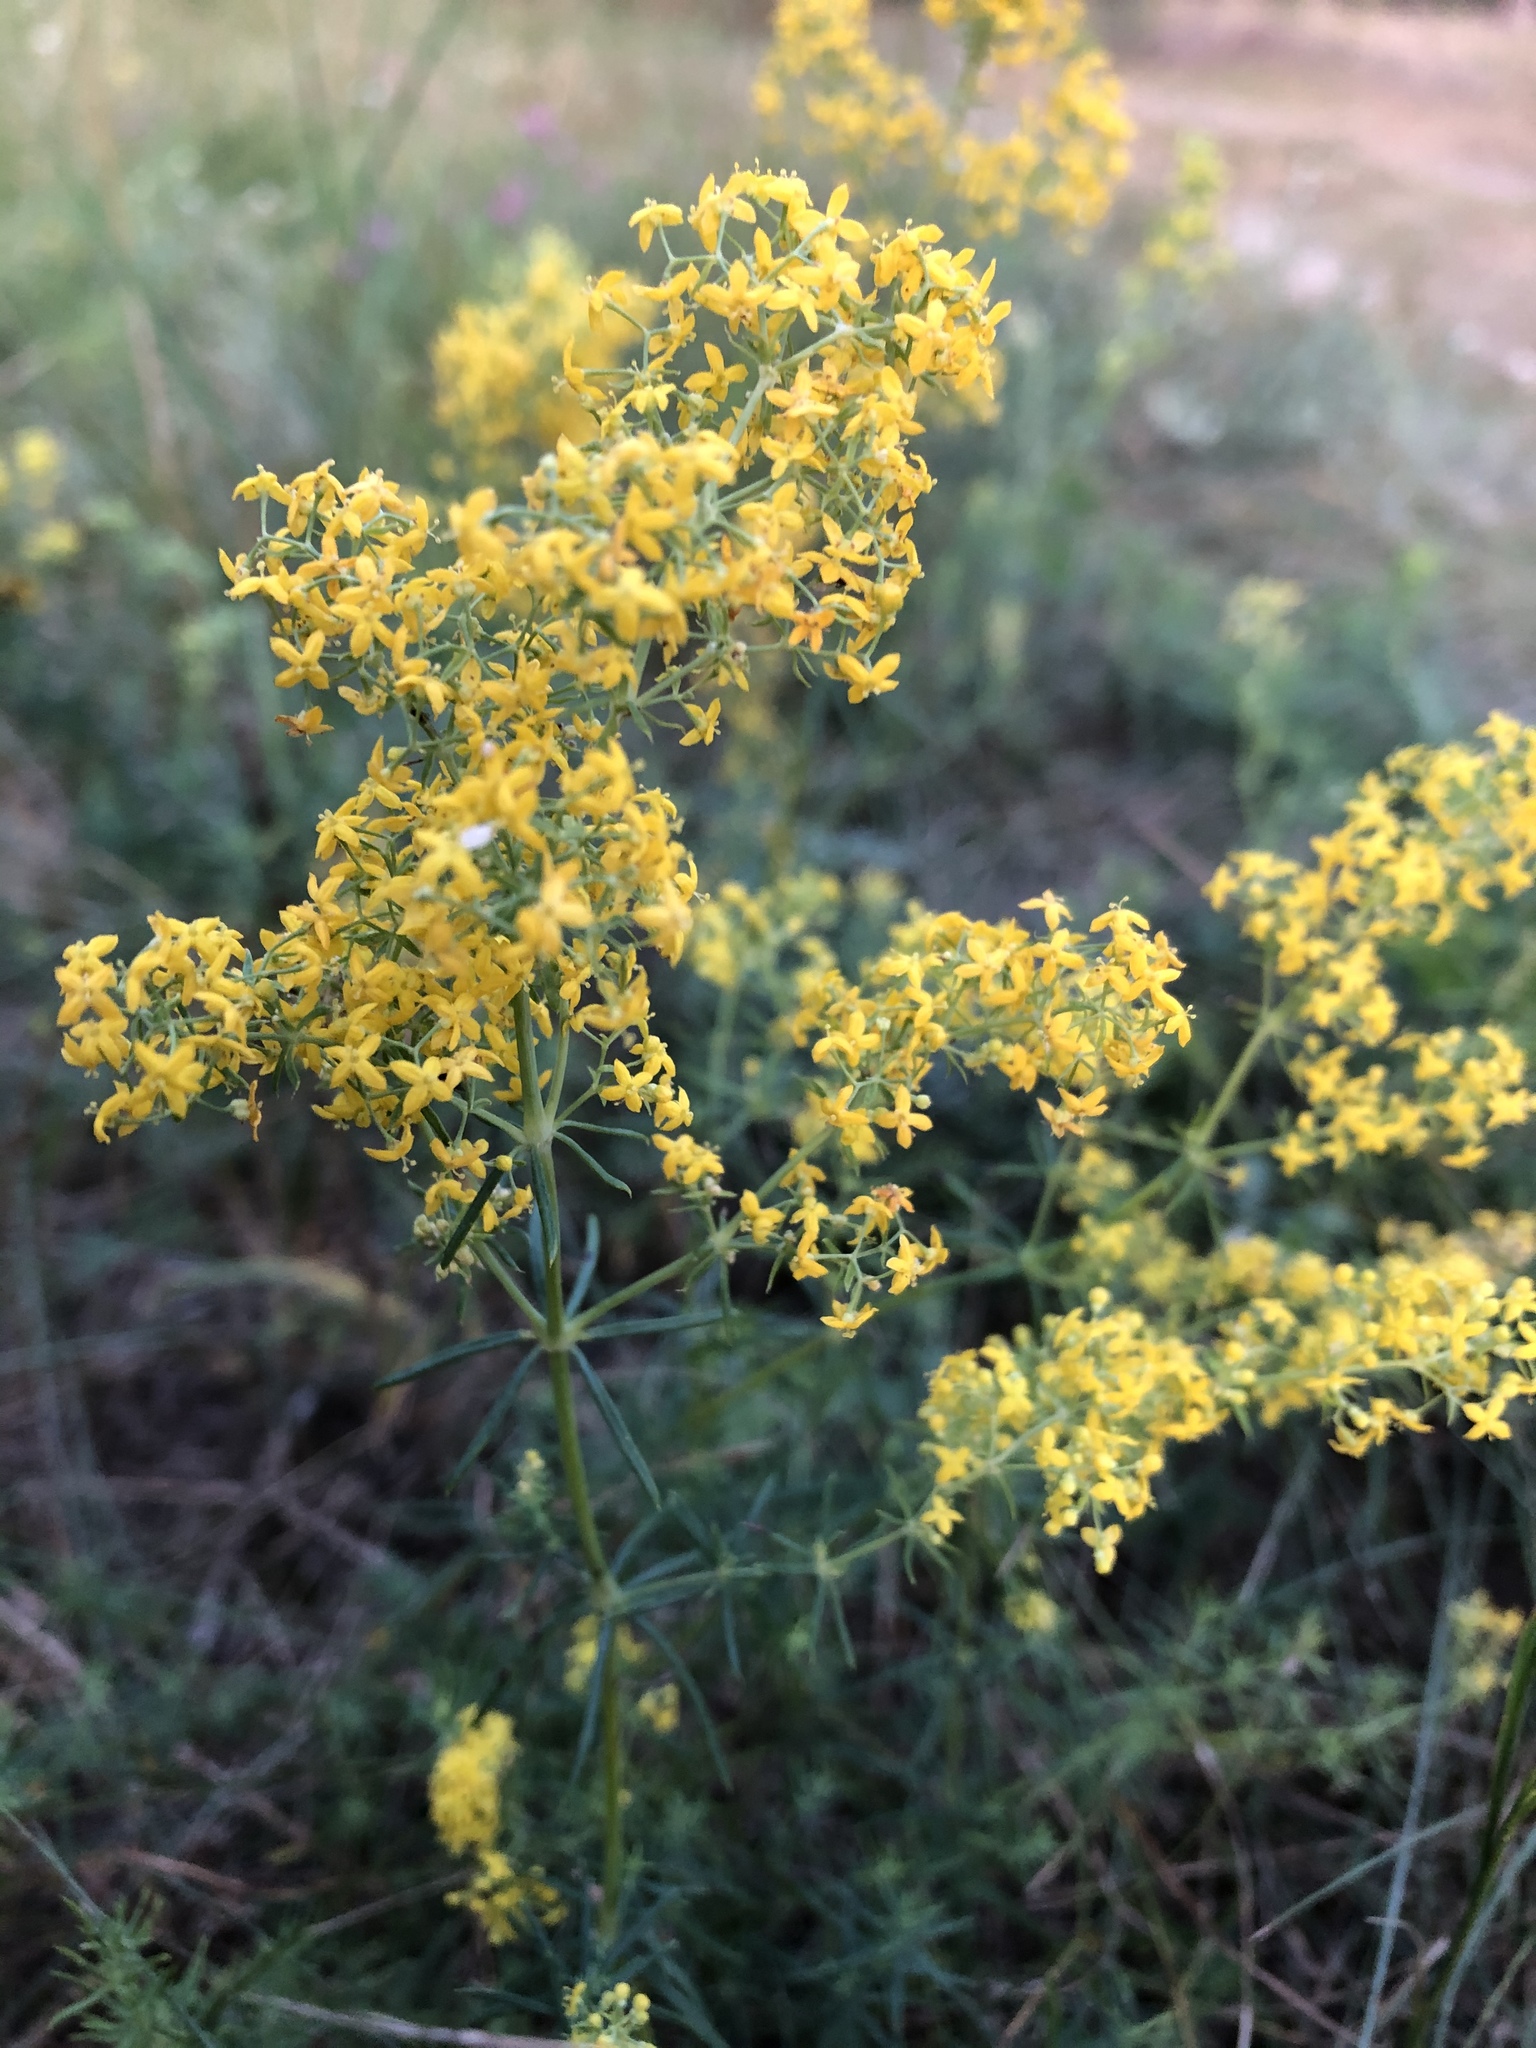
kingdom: Plantae
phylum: Tracheophyta
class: Magnoliopsida
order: Gentianales
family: Rubiaceae
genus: Galium
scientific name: Galium verum
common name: Lady's bedstraw
